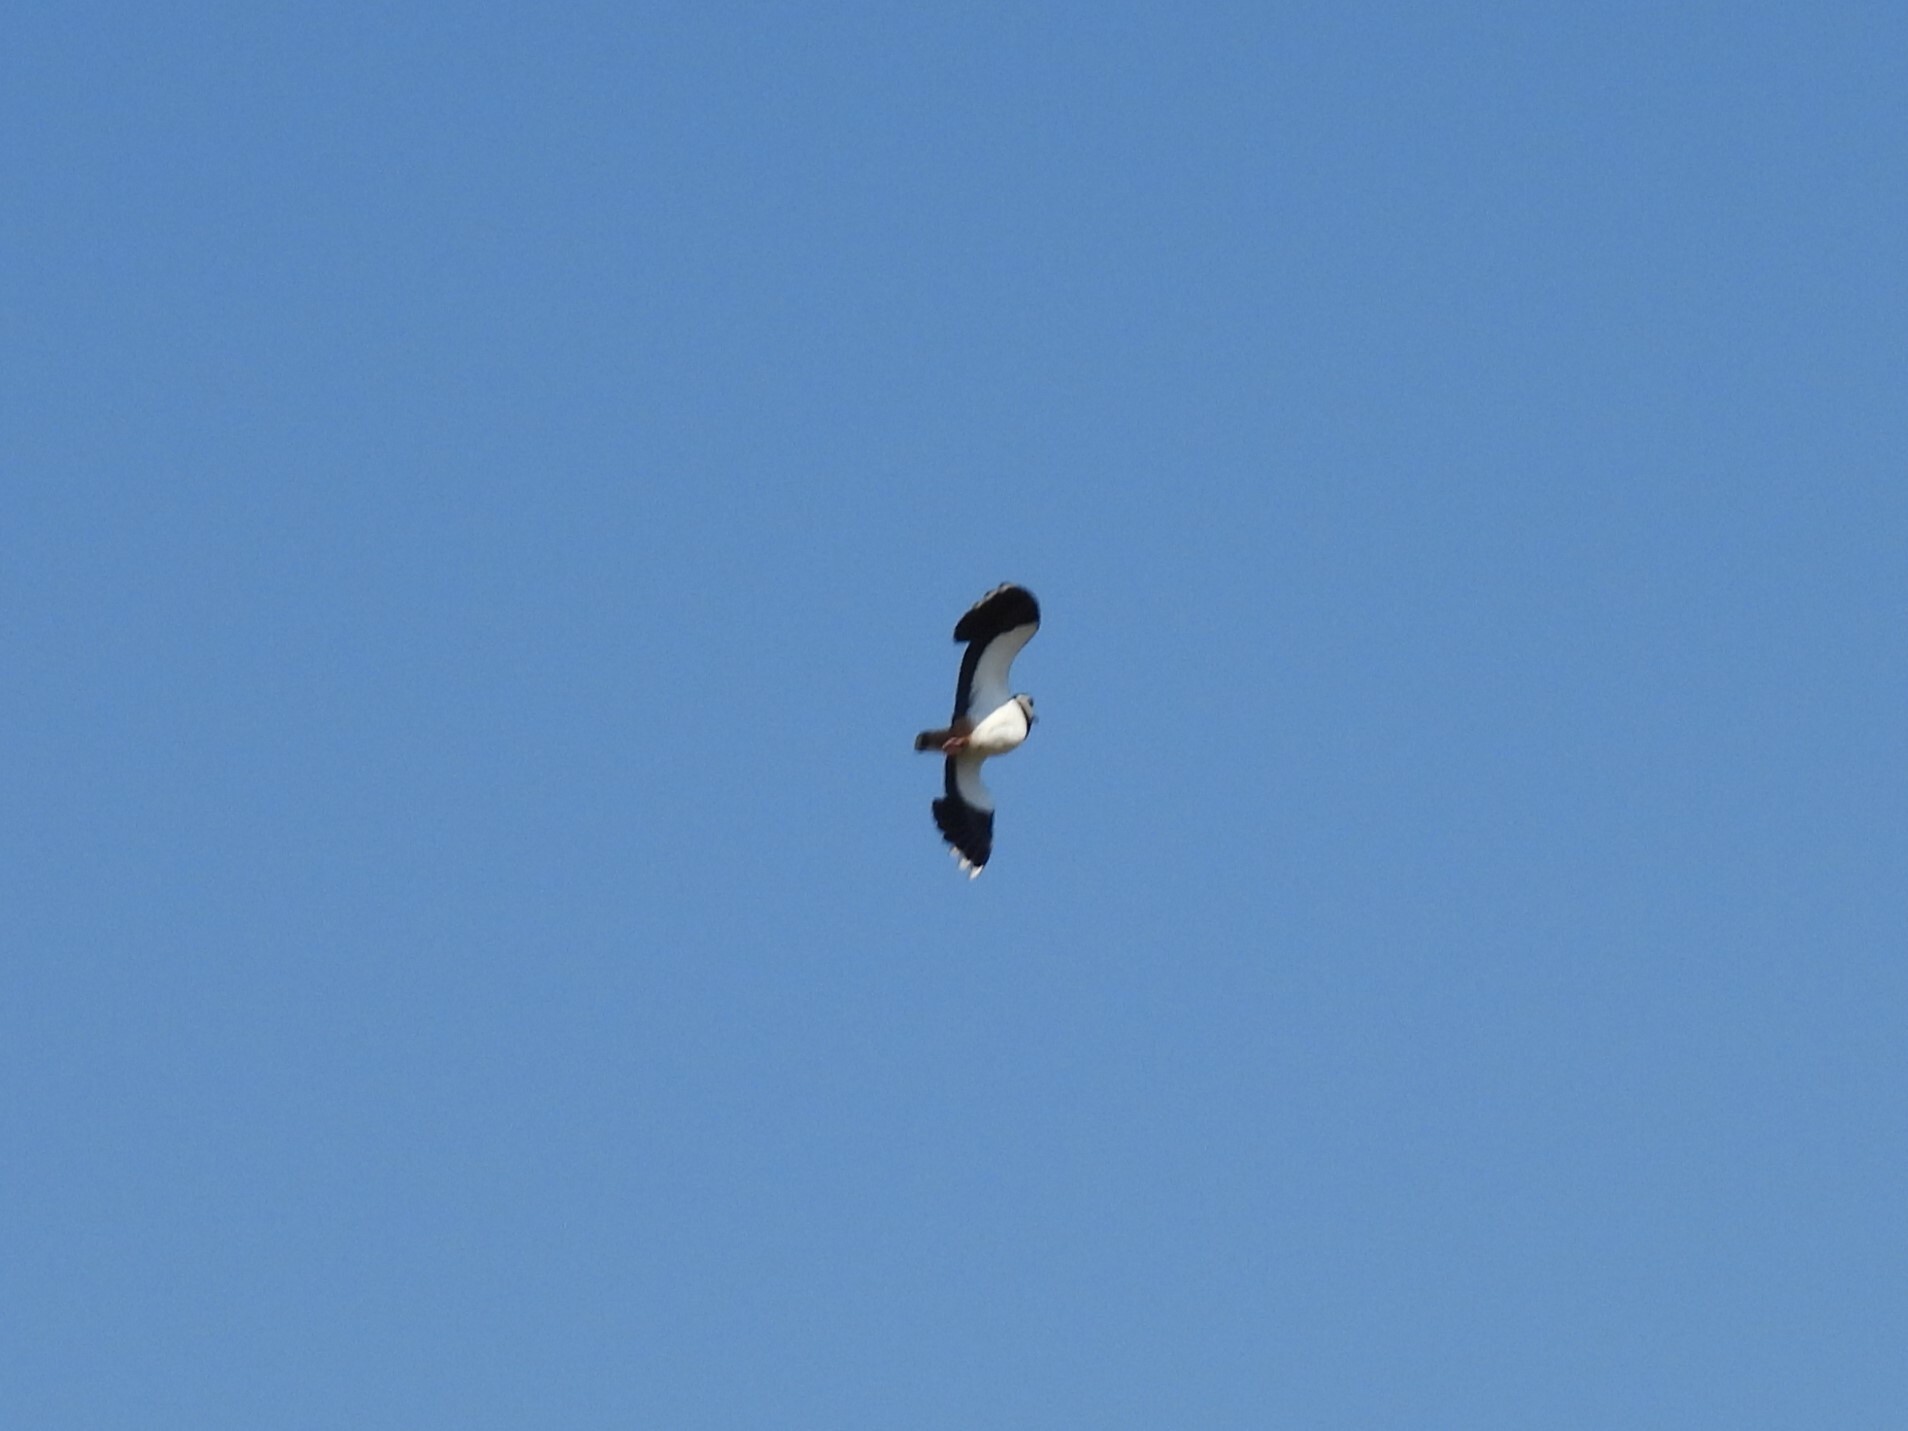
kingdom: Animalia
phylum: Chordata
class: Aves
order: Charadriiformes
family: Charadriidae
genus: Vanellus
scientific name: Vanellus vanellus
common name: Northern lapwing
